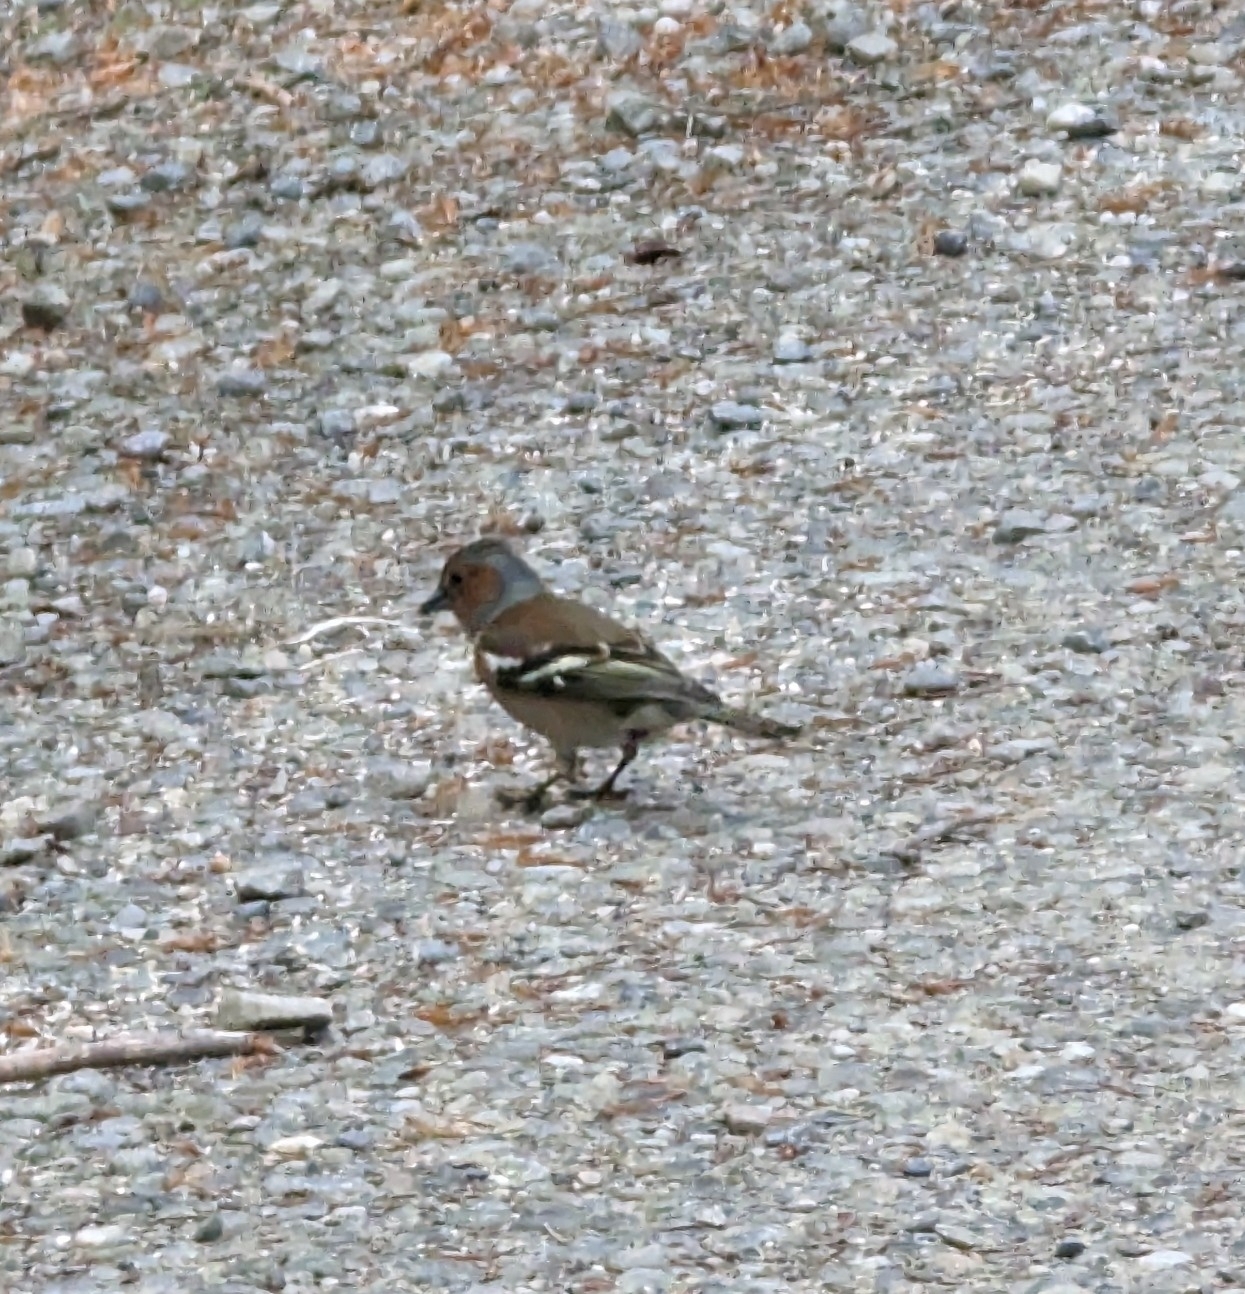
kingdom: Animalia
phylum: Chordata
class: Aves
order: Passeriformes
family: Fringillidae
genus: Fringilla
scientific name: Fringilla coelebs
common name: Common chaffinch
